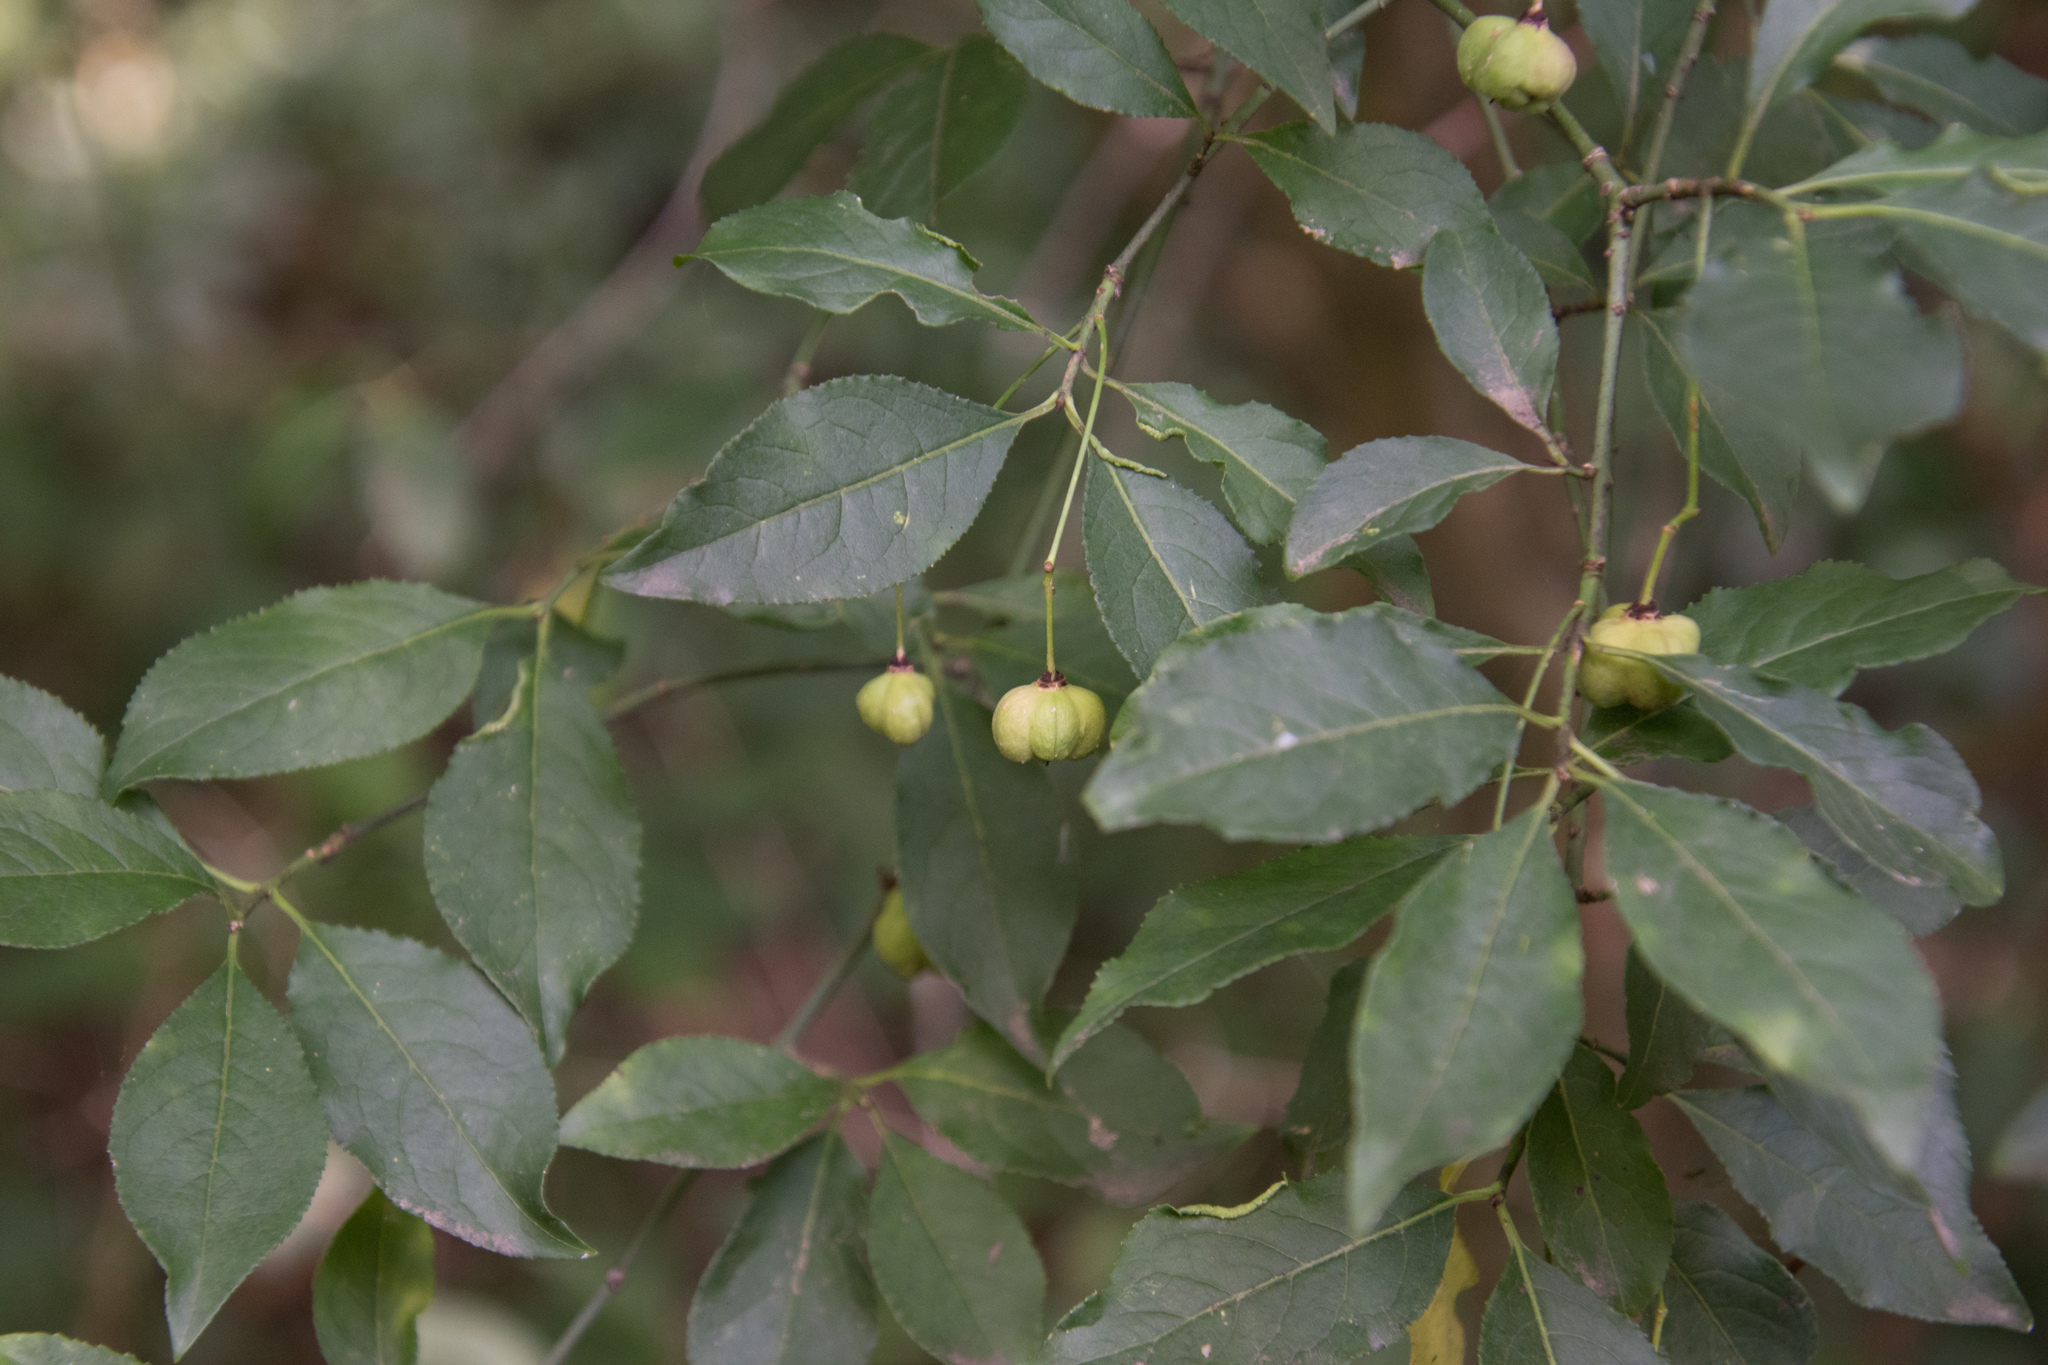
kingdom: Plantae
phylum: Tracheophyta
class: Magnoliopsida
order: Celastrales
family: Celastraceae
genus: Euonymus
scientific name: Euonymus europaeus
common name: Spindle
